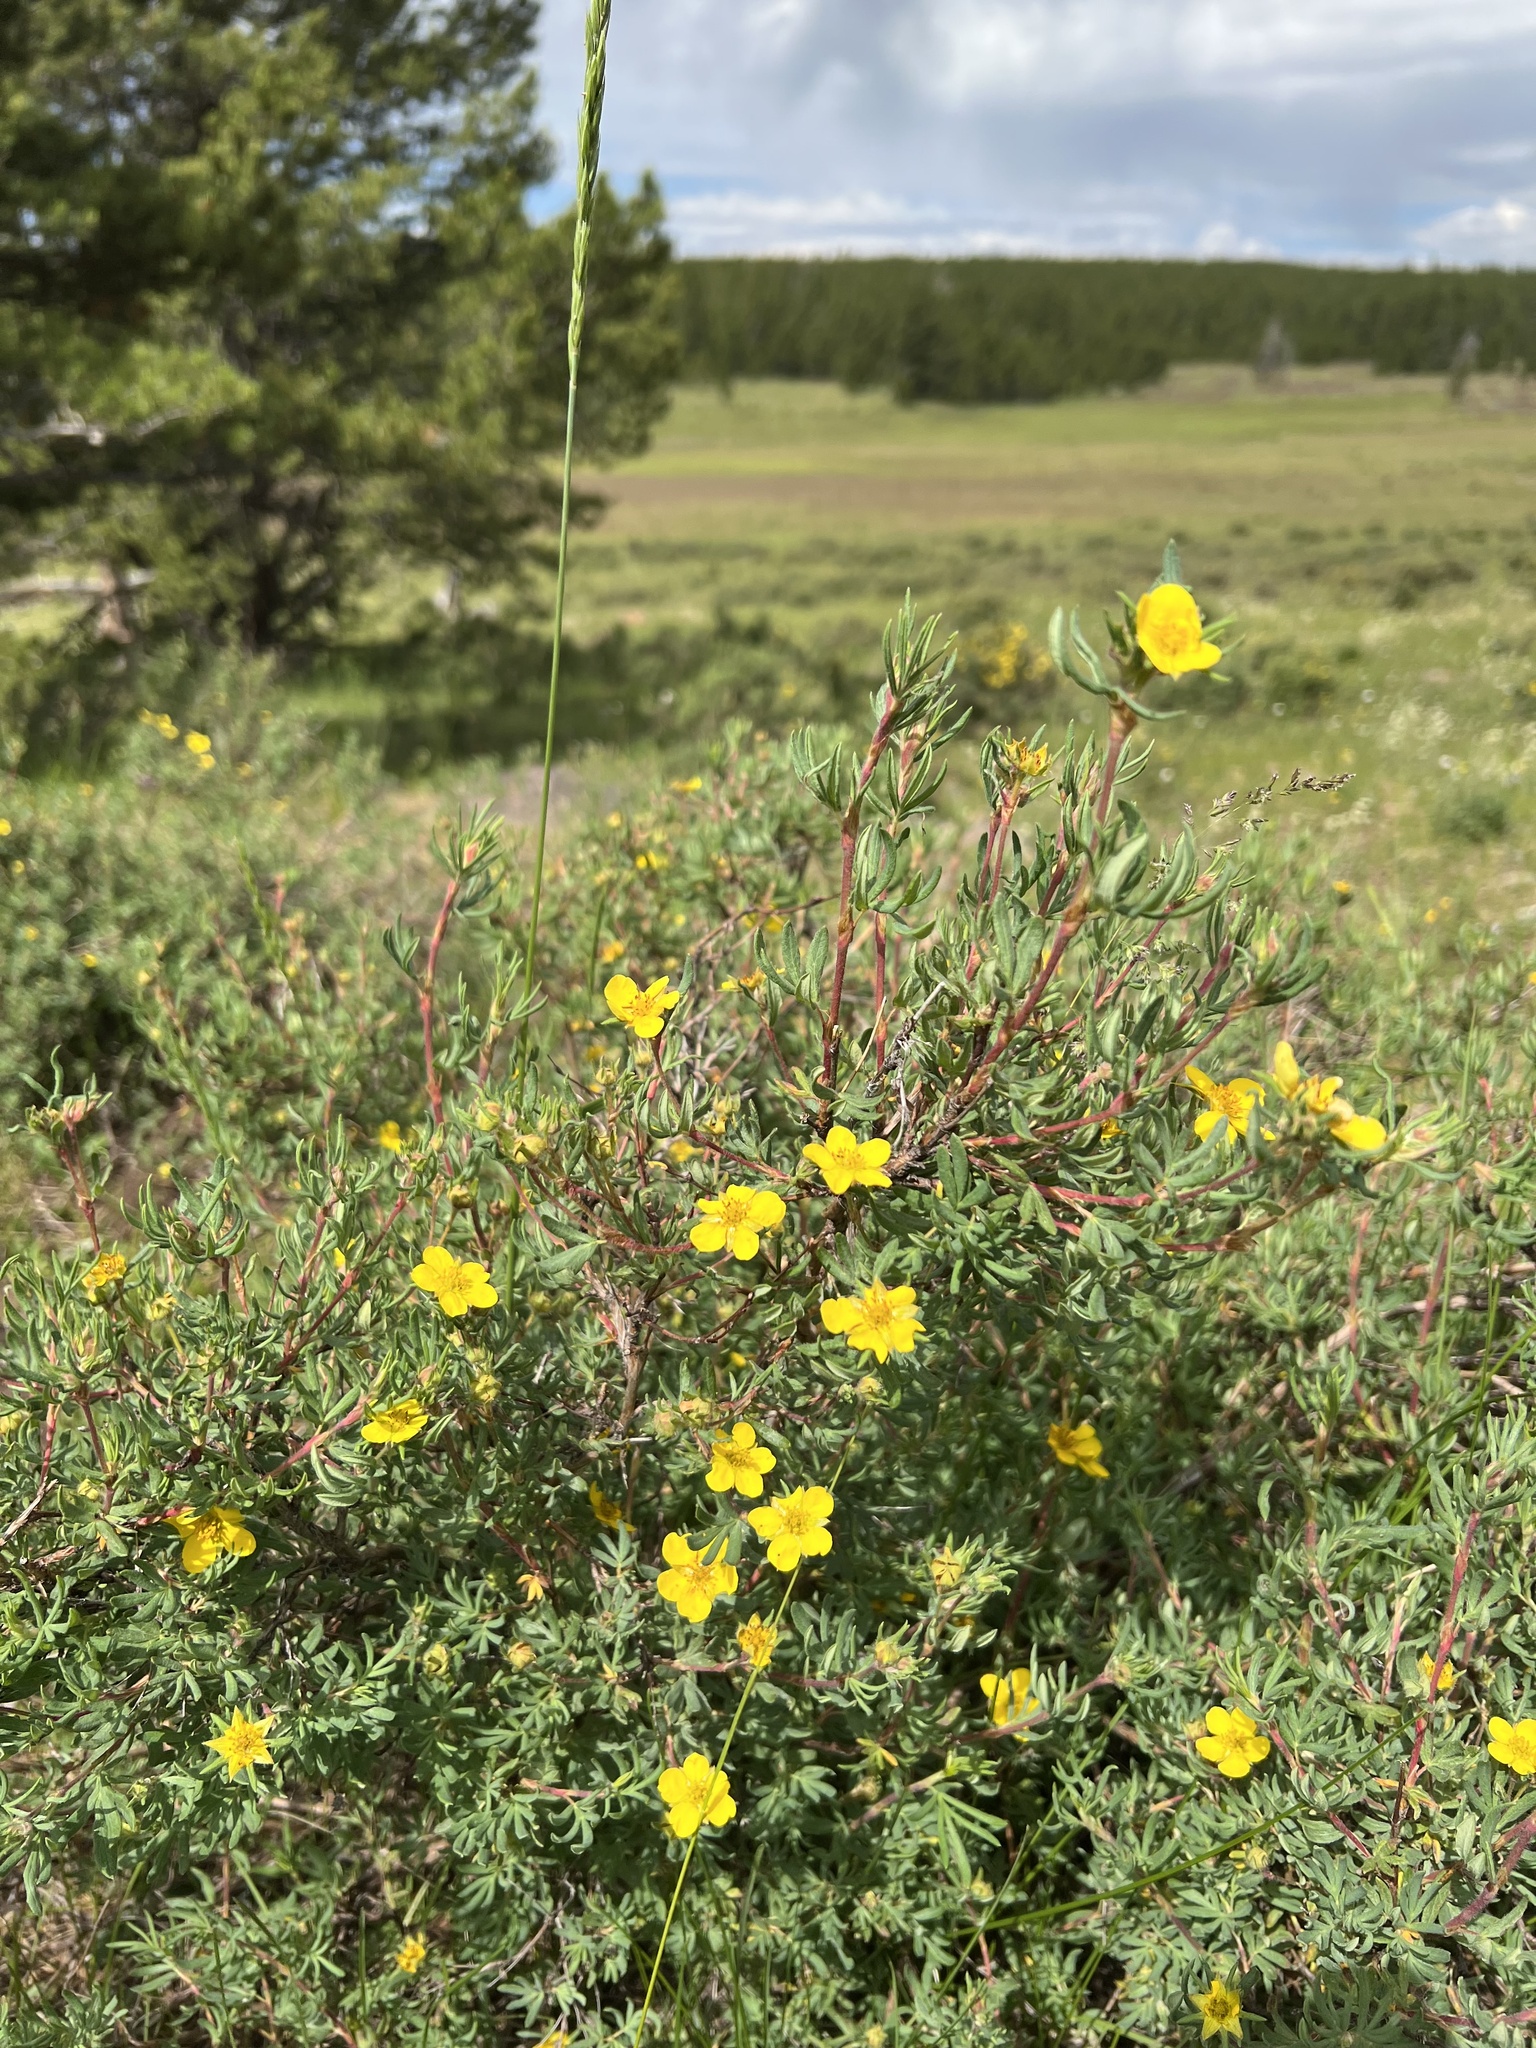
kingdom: Plantae
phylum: Tracheophyta
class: Magnoliopsida
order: Rosales
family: Rosaceae
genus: Dasiphora
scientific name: Dasiphora fruticosa
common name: Shrubby cinquefoil
